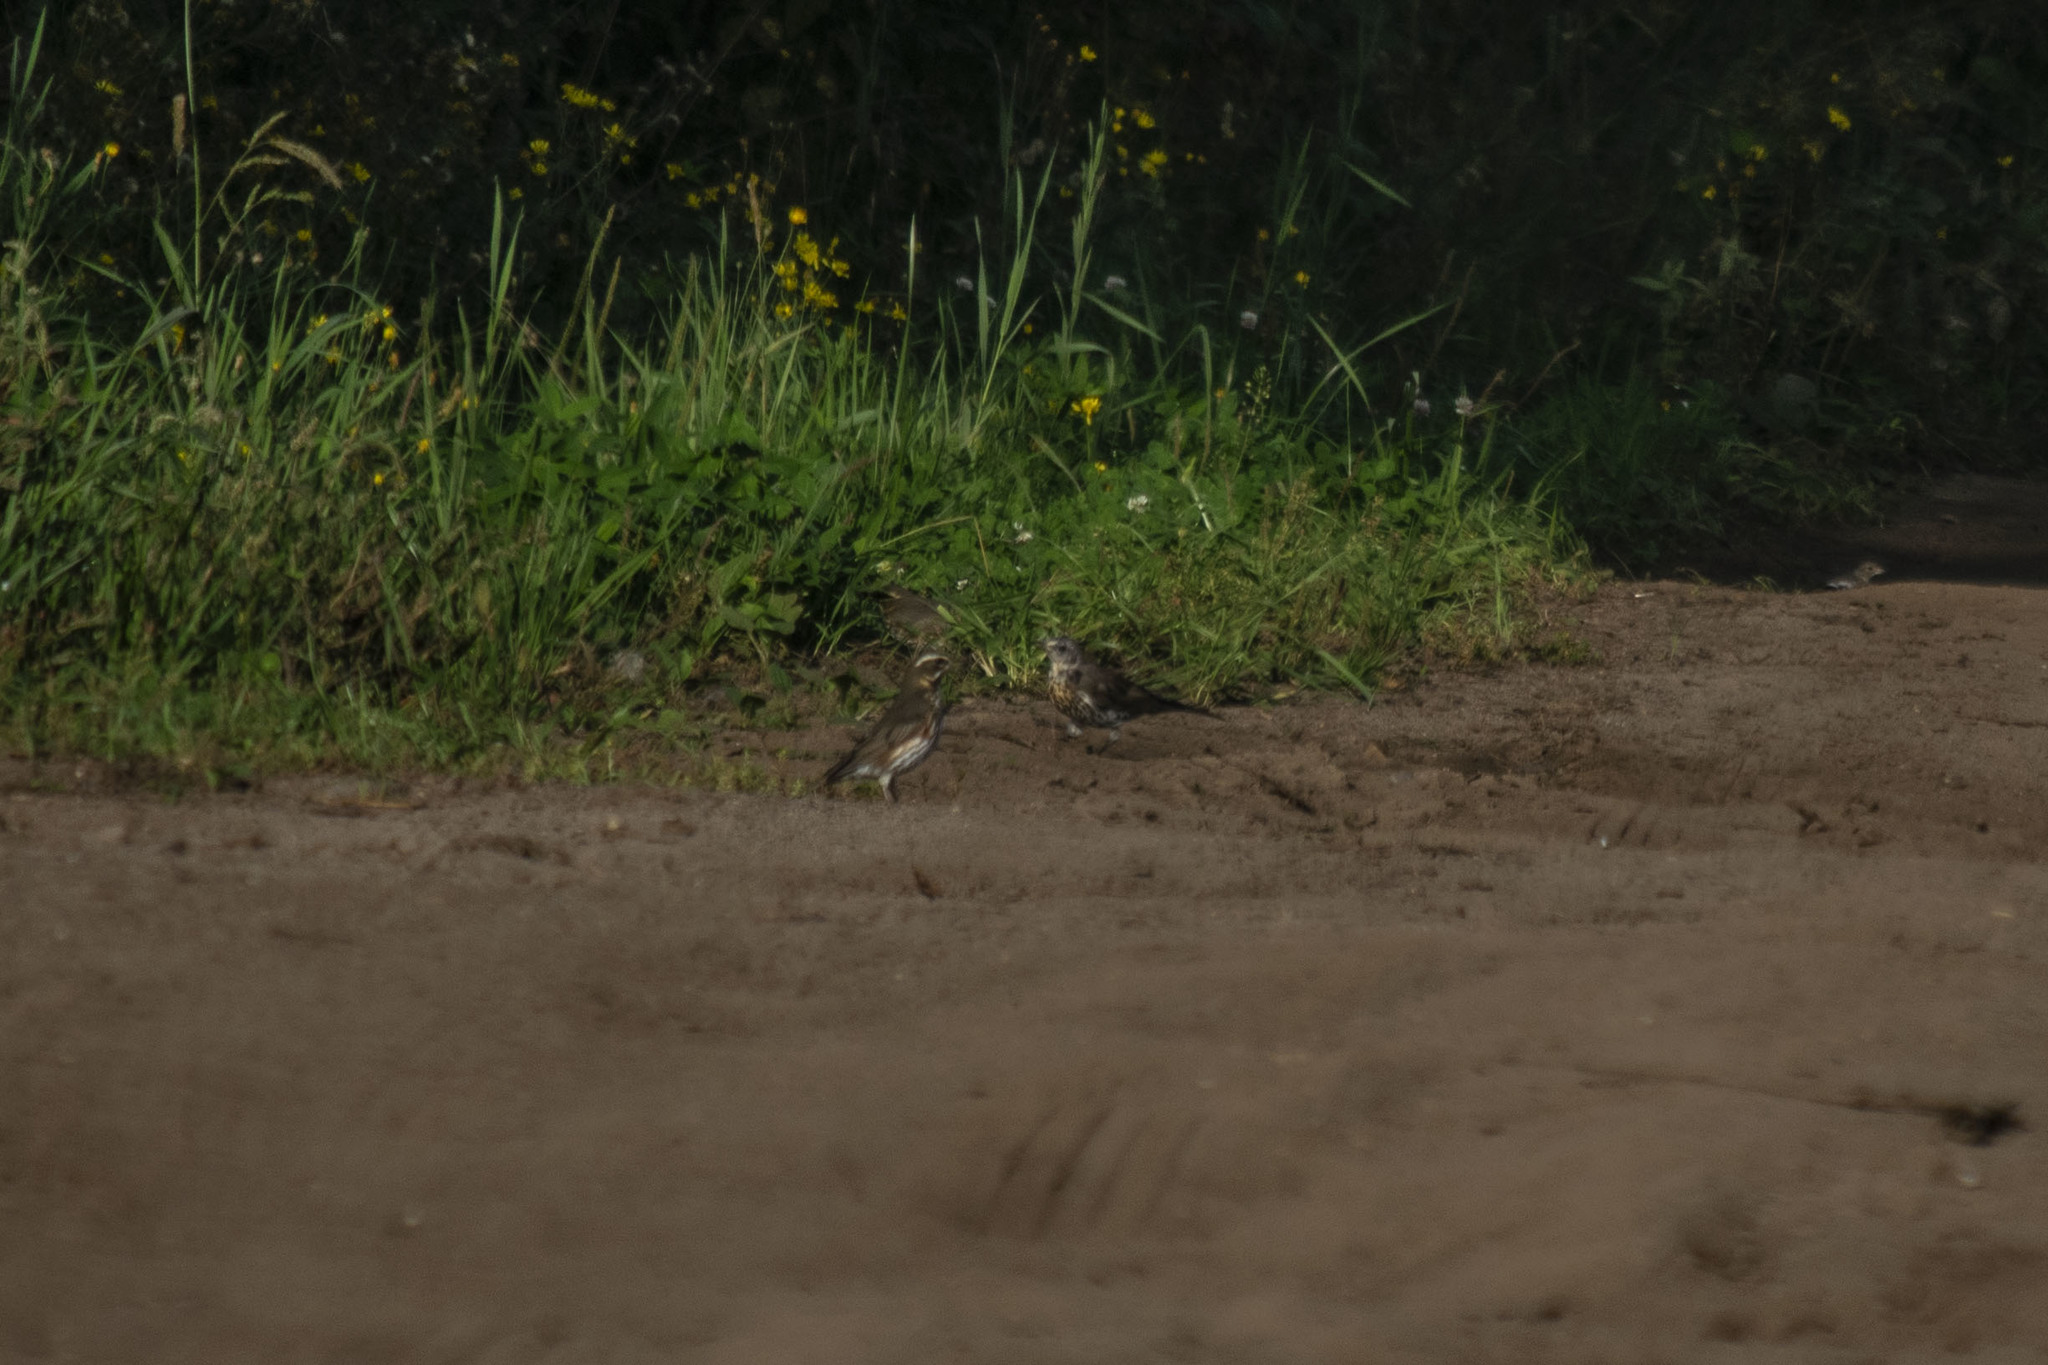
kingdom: Animalia
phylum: Chordata
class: Aves
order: Passeriformes
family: Turdidae
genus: Turdus
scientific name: Turdus iliacus
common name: Redwing
